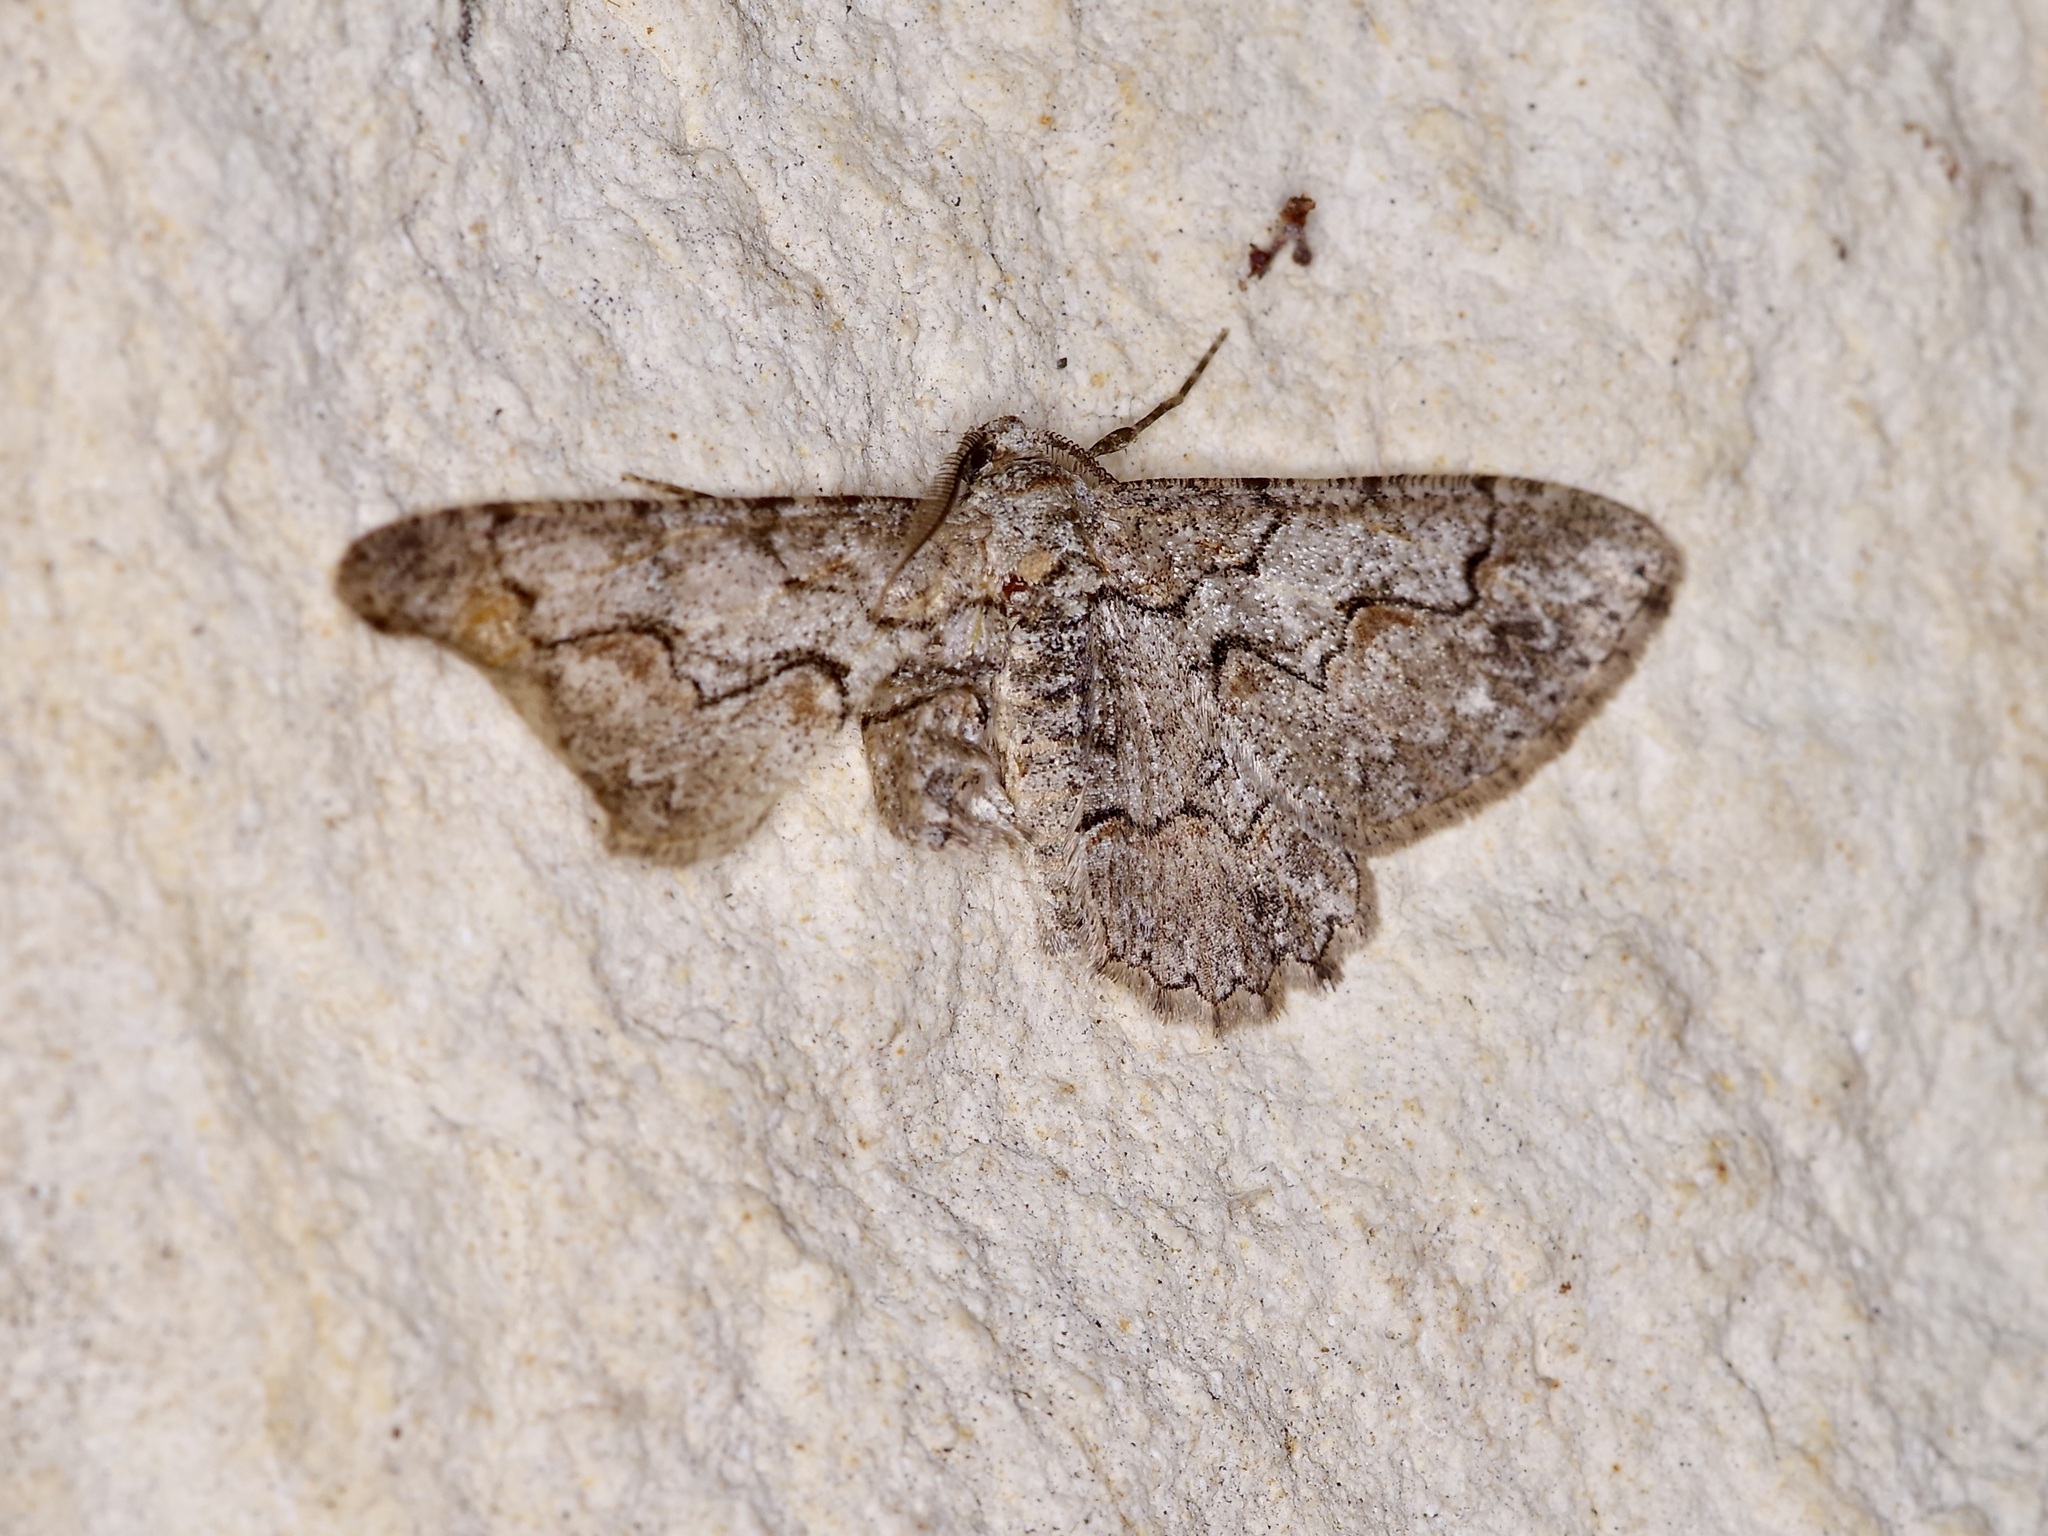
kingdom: Animalia
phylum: Arthropoda
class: Insecta
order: Lepidoptera
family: Geometridae
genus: Iridopsis
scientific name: Iridopsis defectaria
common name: Brown-shaded gray
